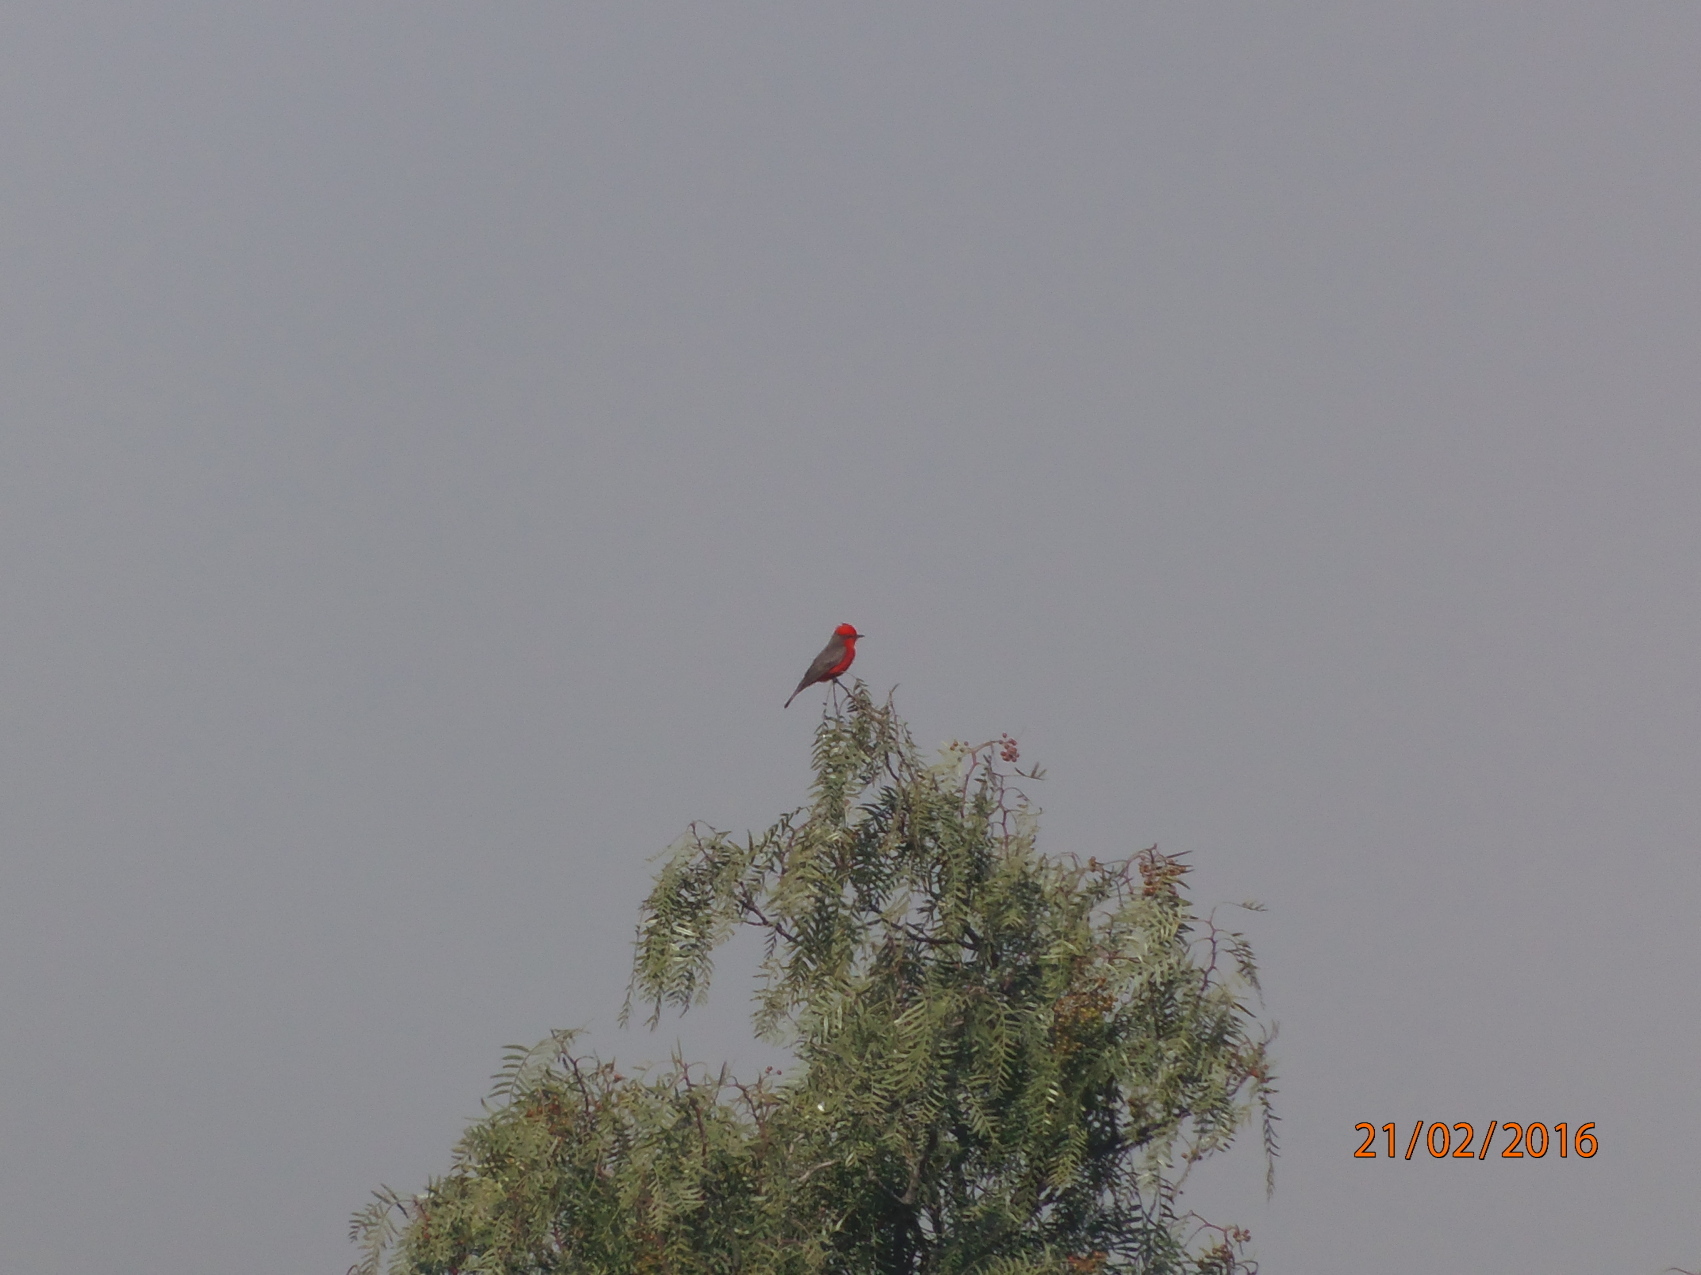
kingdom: Animalia
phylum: Chordata
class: Aves
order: Passeriformes
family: Tyrannidae
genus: Pyrocephalus
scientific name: Pyrocephalus rubinus
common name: Vermilion flycatcher
